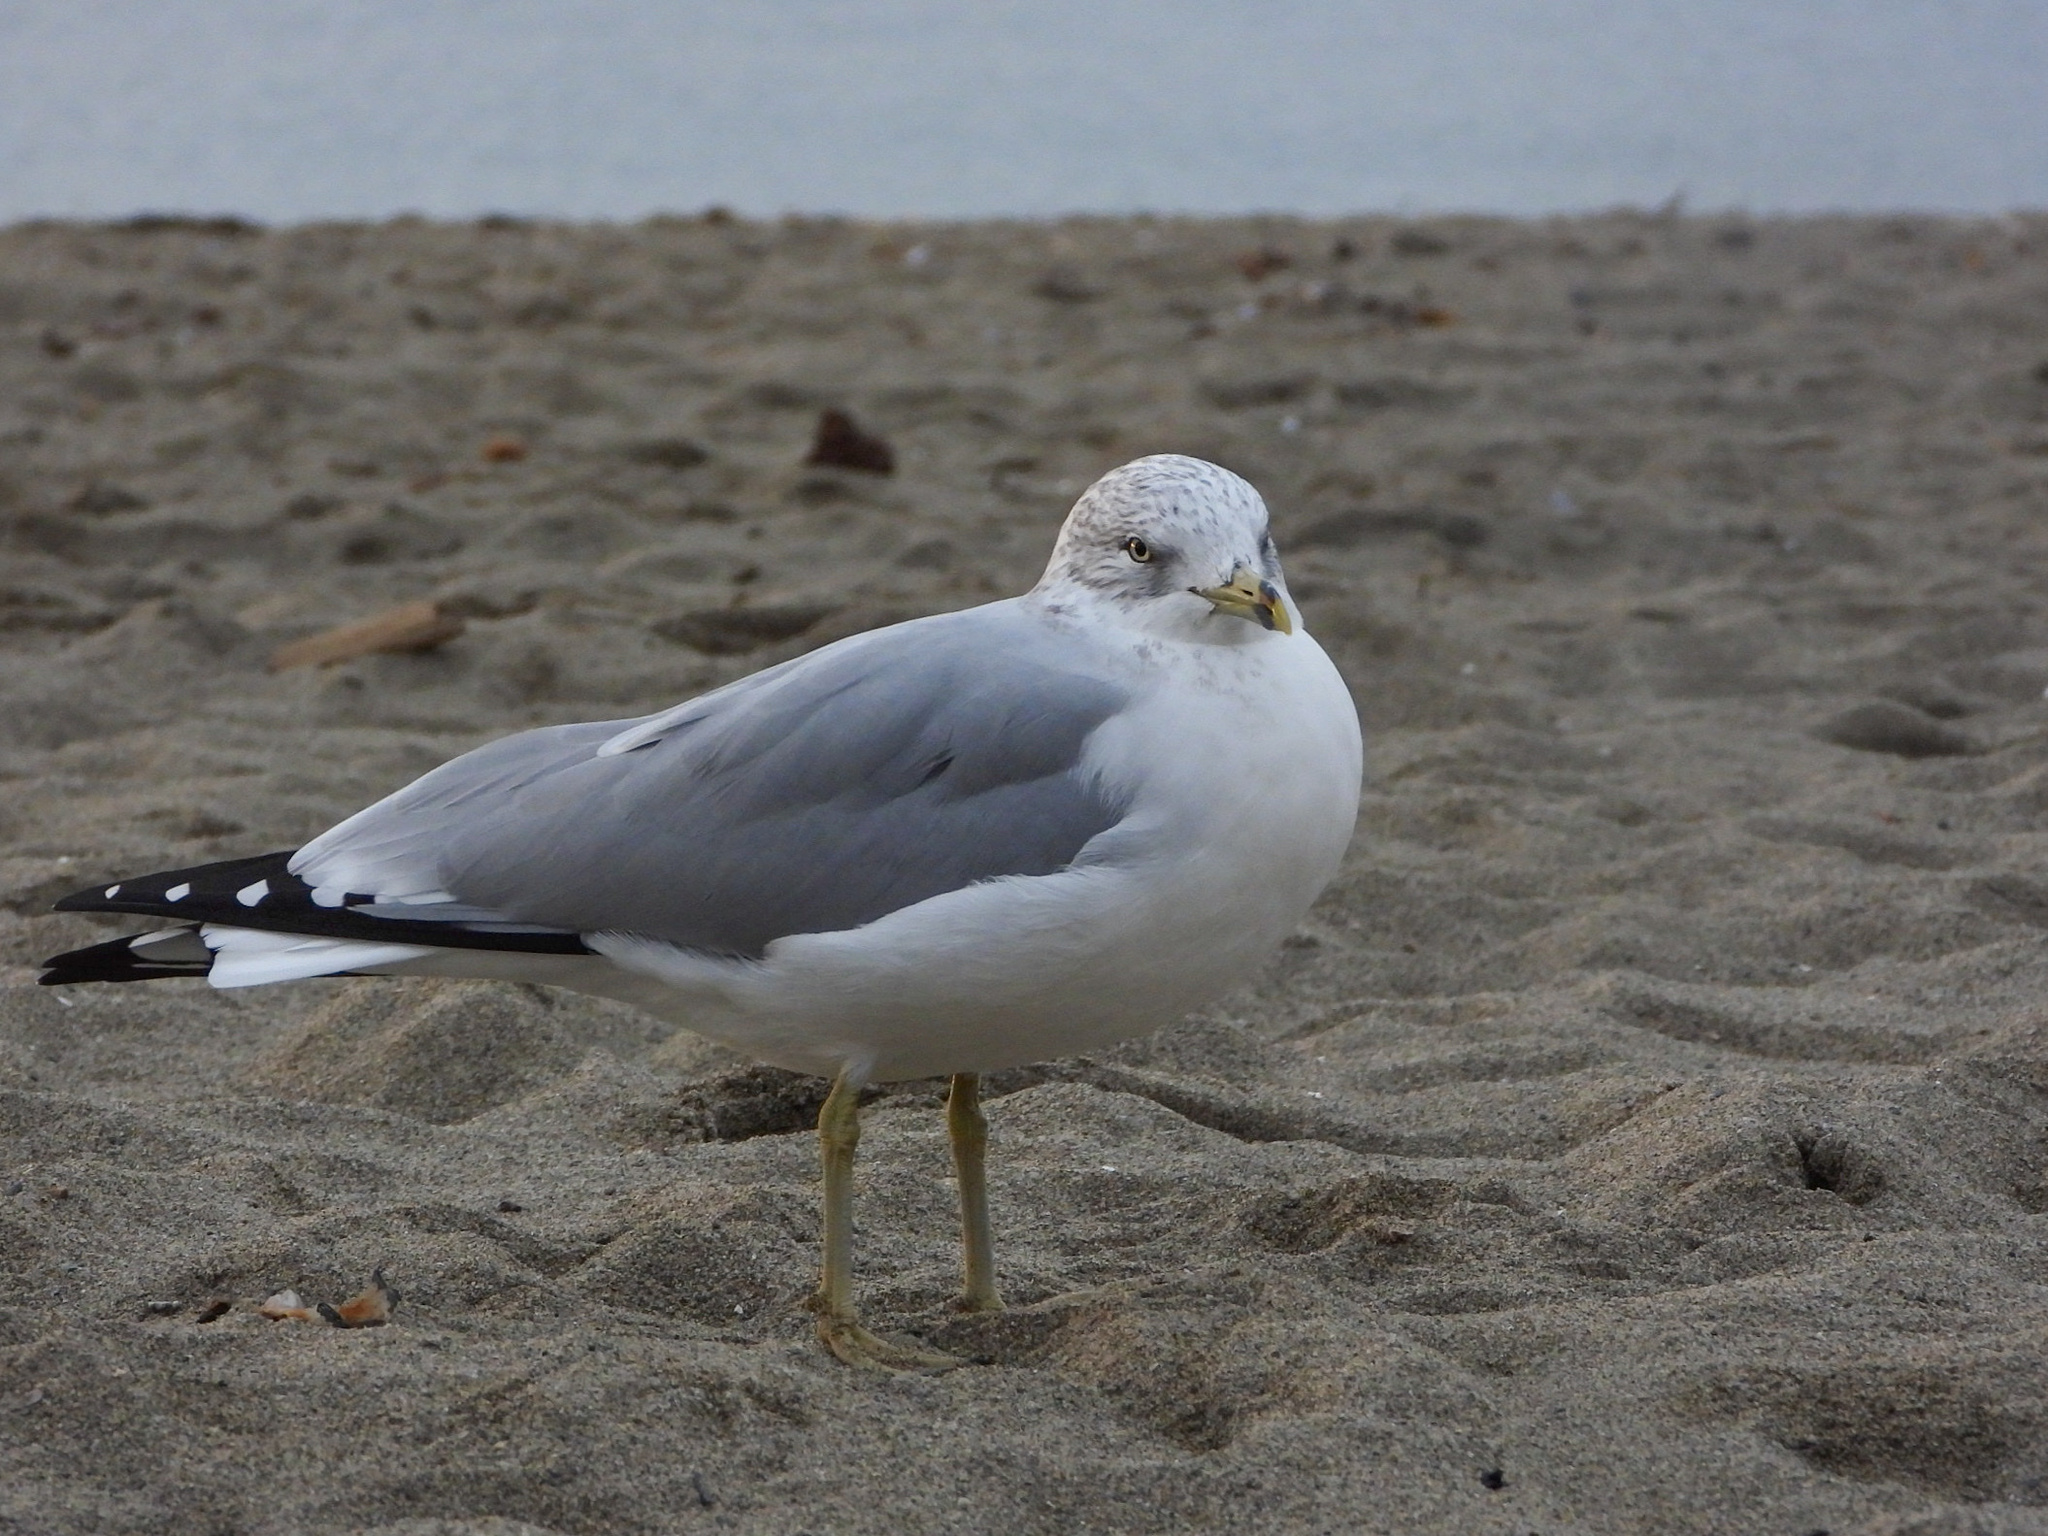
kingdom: Animalia
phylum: Chordata
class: Aves
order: Charadriiformes
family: Laridae
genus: Larus
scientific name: Larus delawarensis
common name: Ring-billed gull
